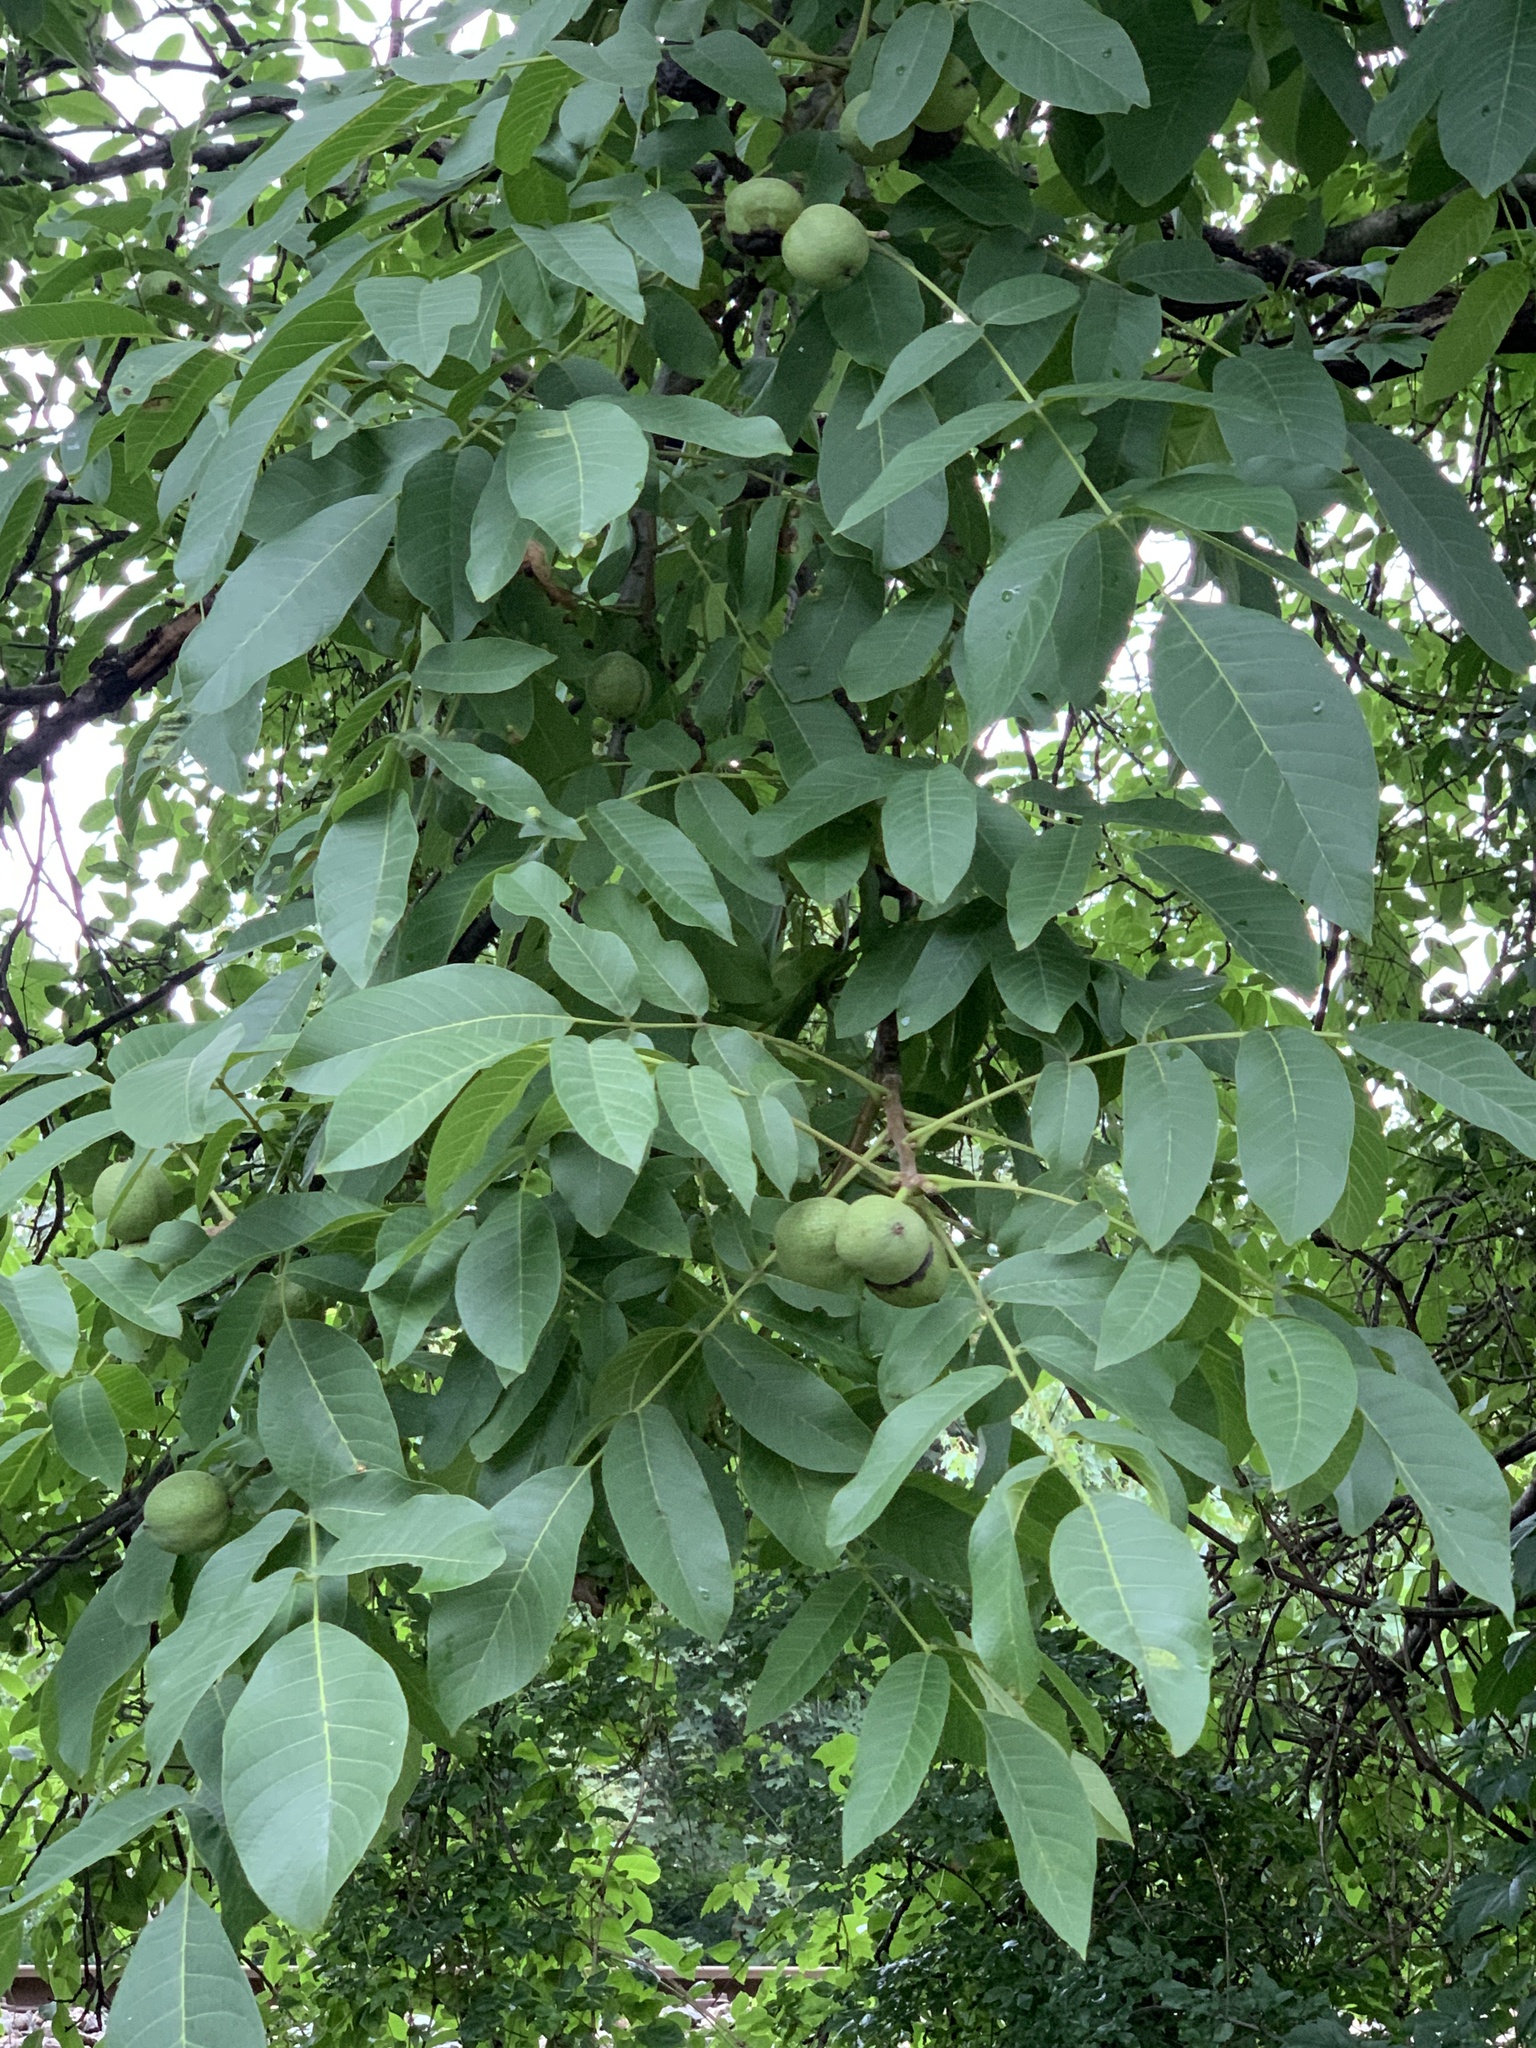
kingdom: Plantae
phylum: Tracheophyta
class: Magnoliopsida
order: Fagales
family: Juglandaceae
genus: Juglans
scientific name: Juglans regia
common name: Walnut
